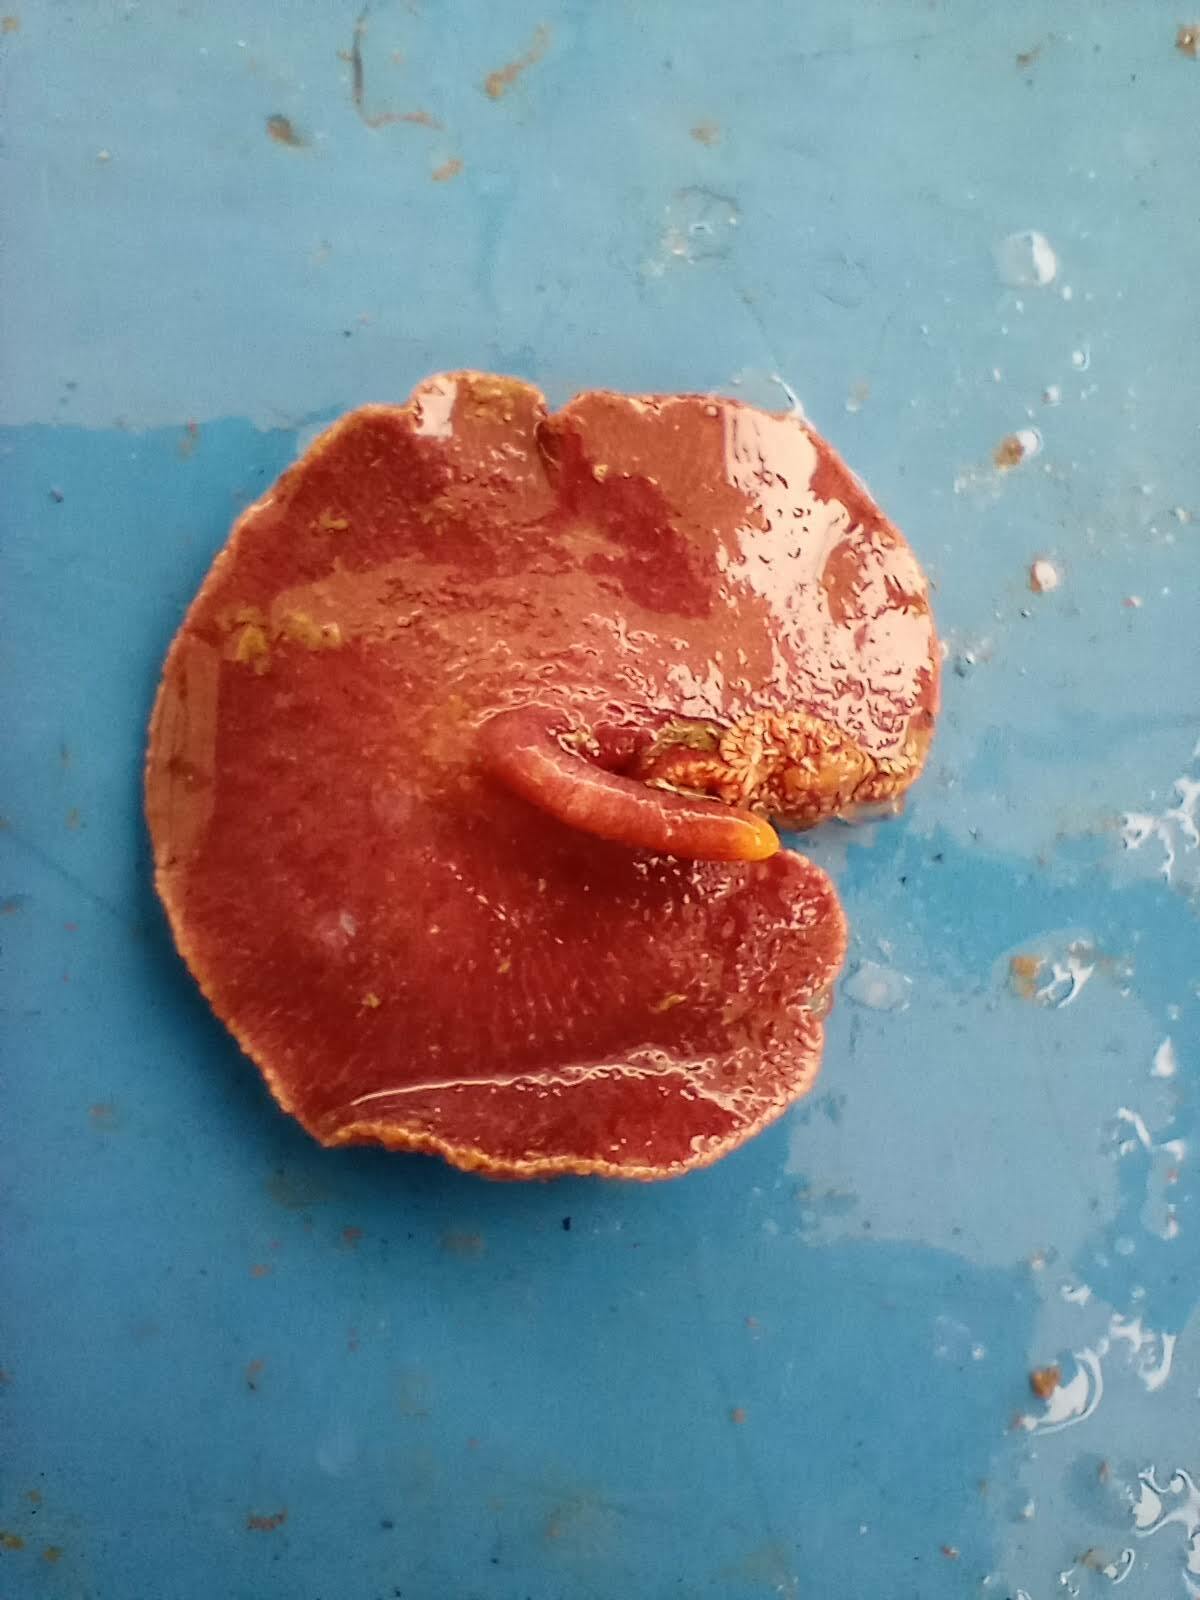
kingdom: Animalia
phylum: Cnidaria
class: Anthozoa
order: Scleralcyonacea
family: Renillidae
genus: Renilla
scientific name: Renilla reniformis
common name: Sea pansy
